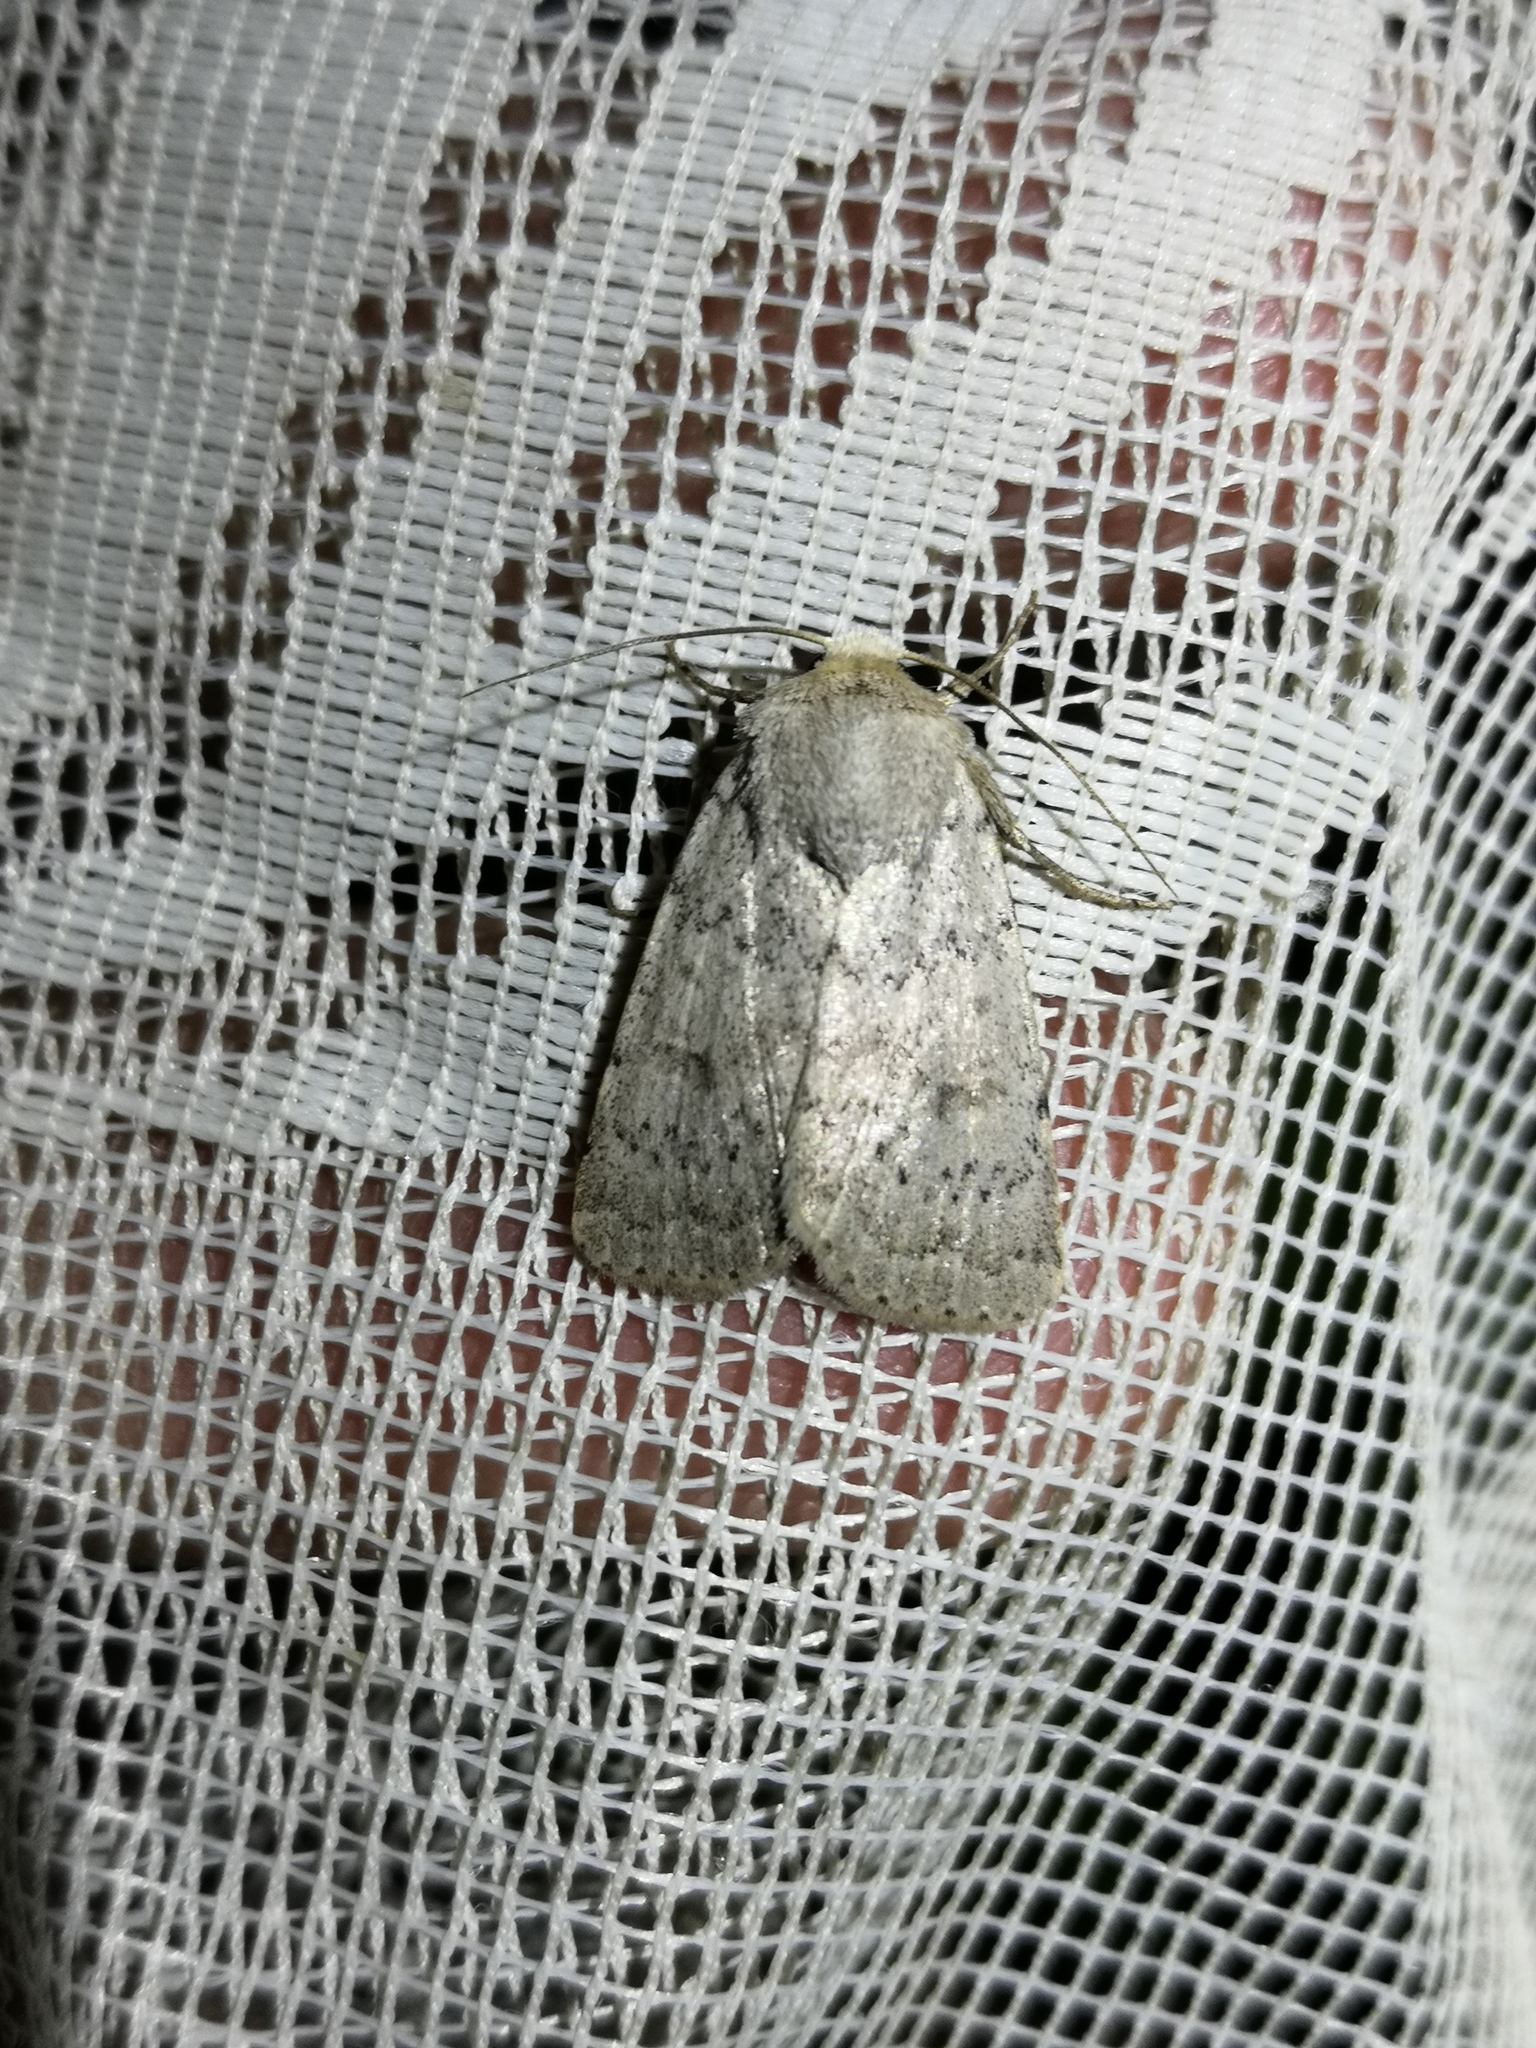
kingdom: Animalia
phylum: Arthropoda
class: Insecta
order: Lepidoptera
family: Noctuidae
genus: Hoplodrina
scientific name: Hoplodrina respersa
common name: Sprinkled rustic
